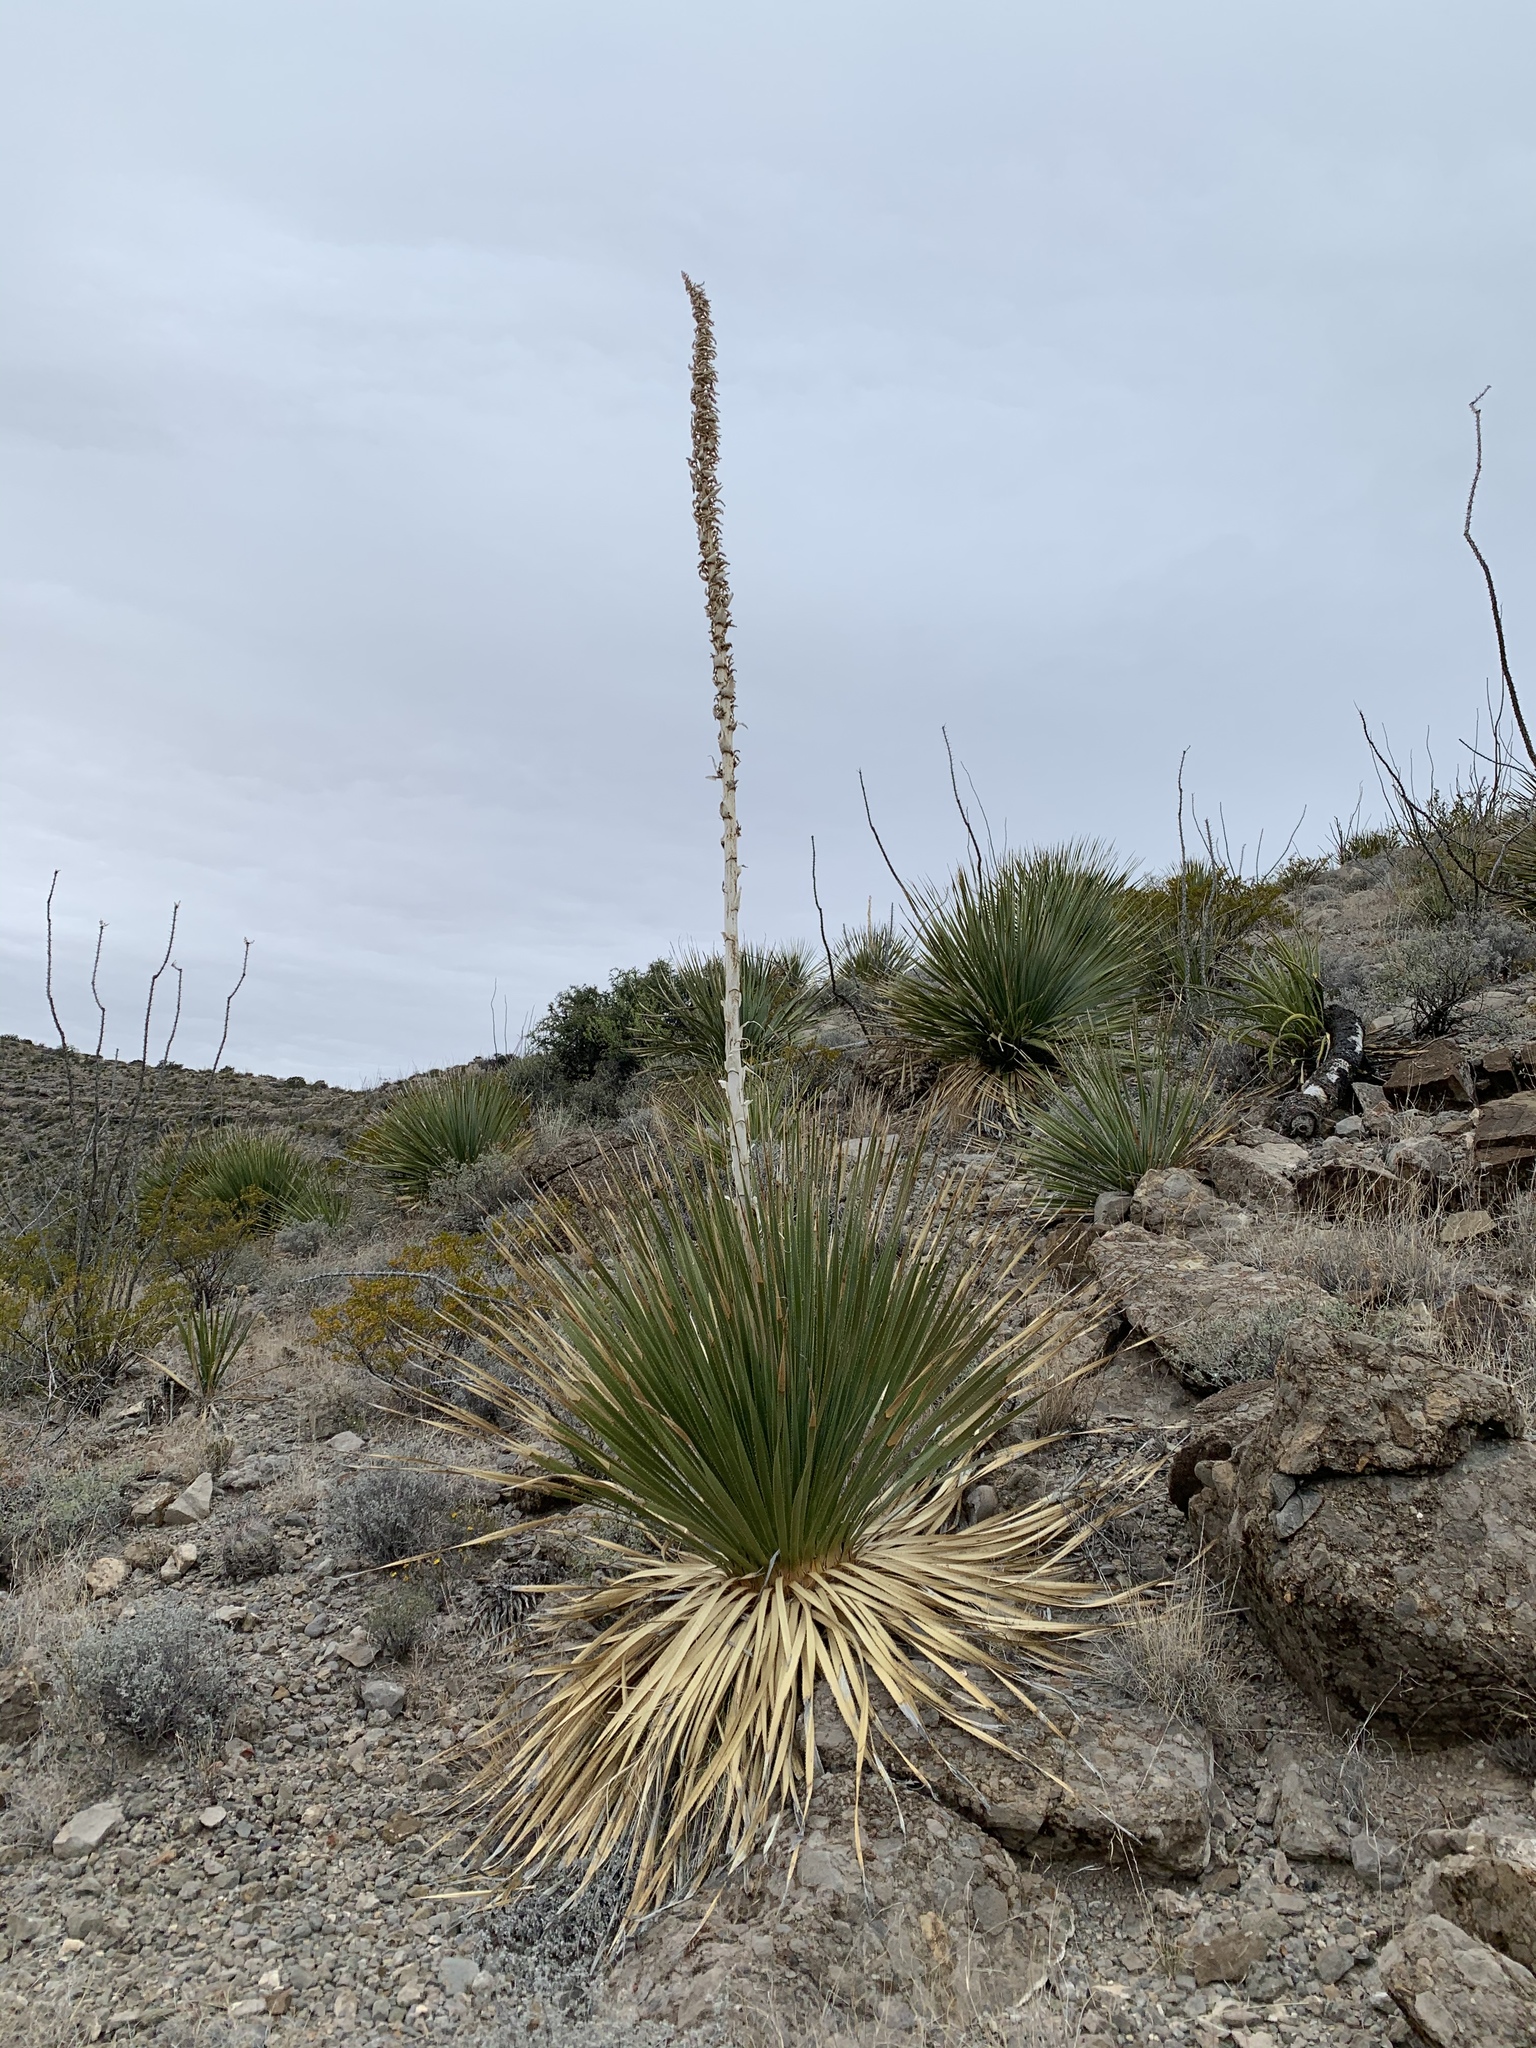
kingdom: Plantae
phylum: Tracheophyta
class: Liliopsida
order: Asparagales
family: Asparagaceae
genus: Dasylirion
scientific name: Dasylirion wheeleri
